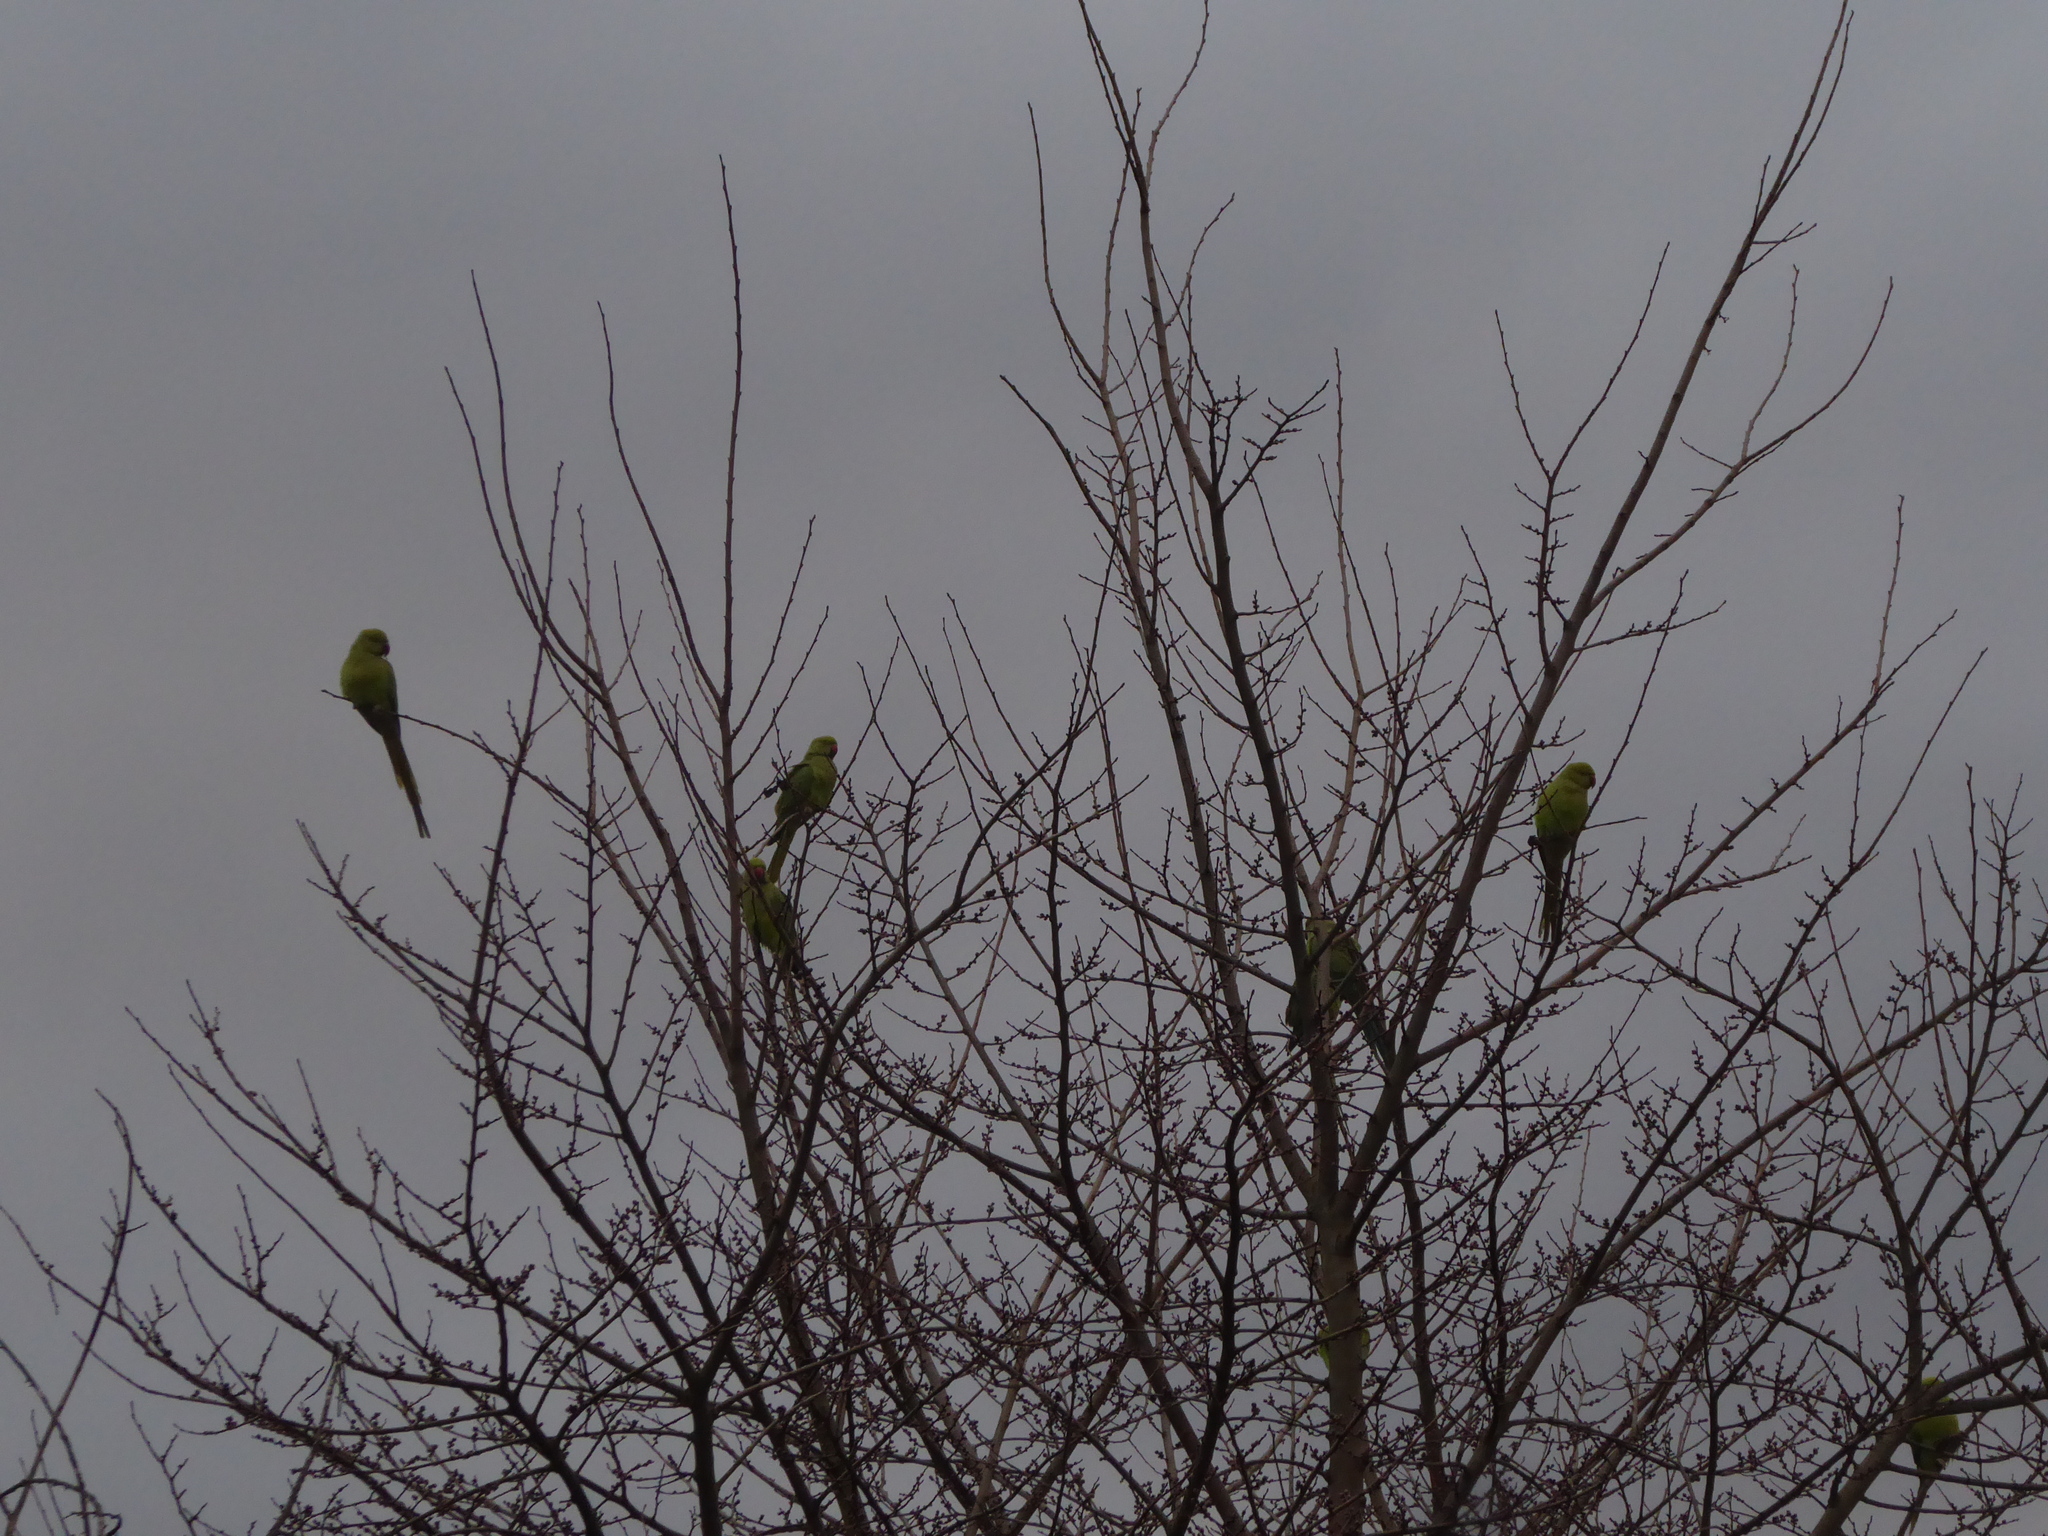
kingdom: Animalia
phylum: Chordata
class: Aves
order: Psittaciformes
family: Psittacidae
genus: Psittacula
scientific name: Psittacula krameri
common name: Rose-ringed parakeet
